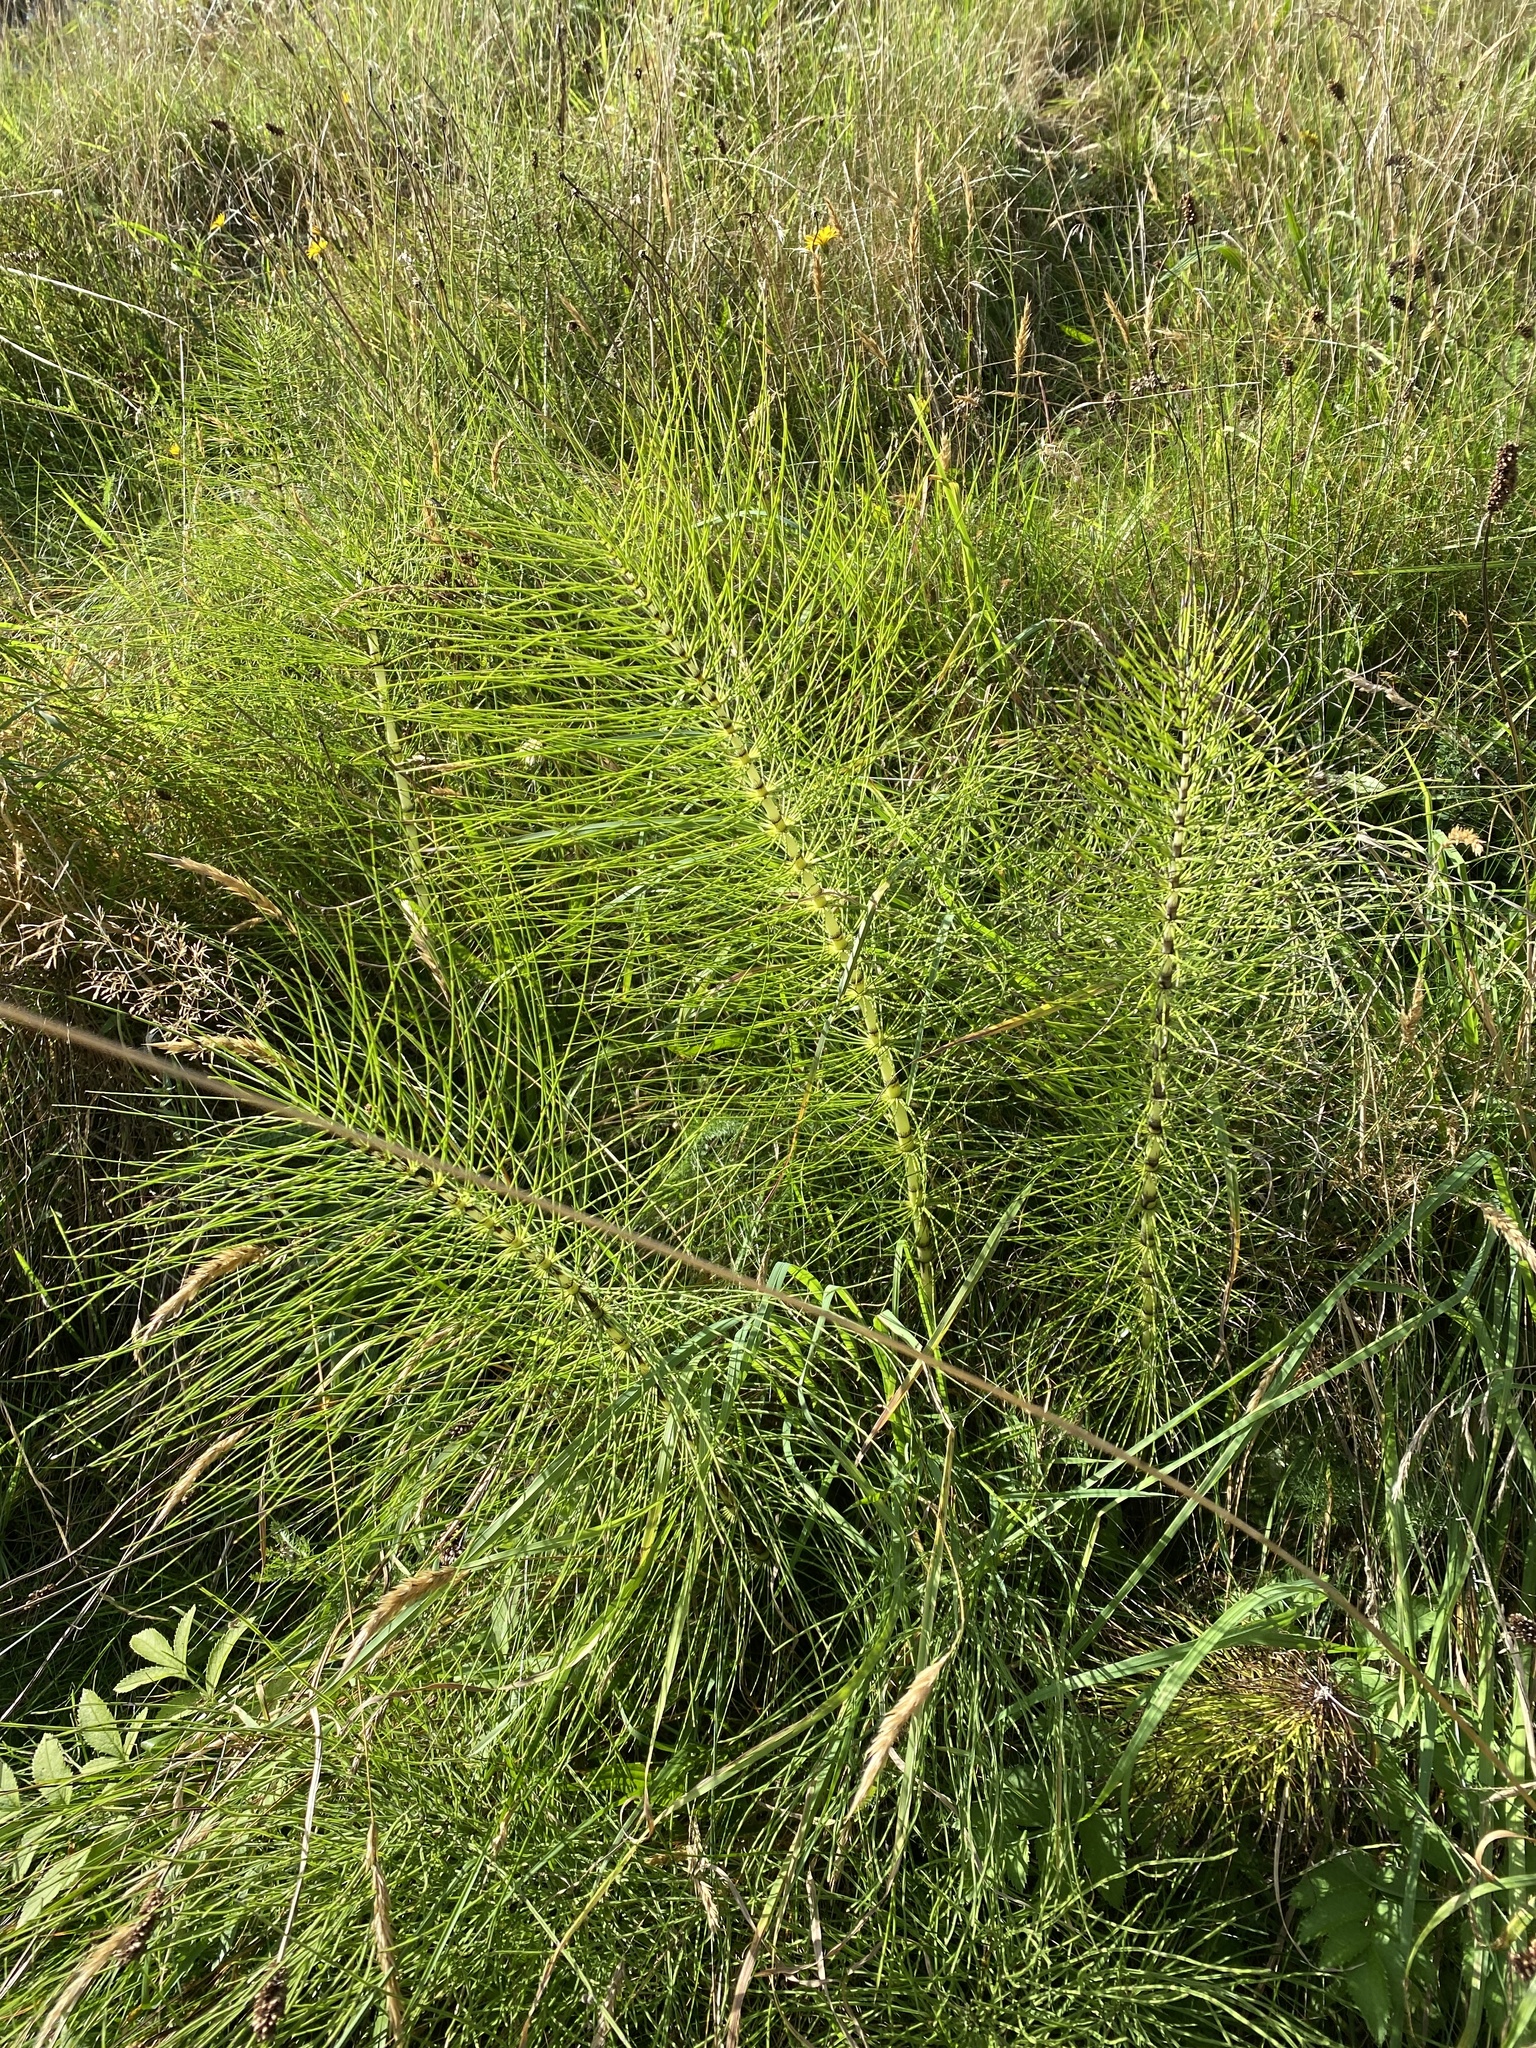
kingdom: Plantae
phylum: Tracheophyta
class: Polypodiopsida
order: Equisetales
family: Equisetaceae
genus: Equisetum
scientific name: Equisetum telmateia
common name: Great horsetail
